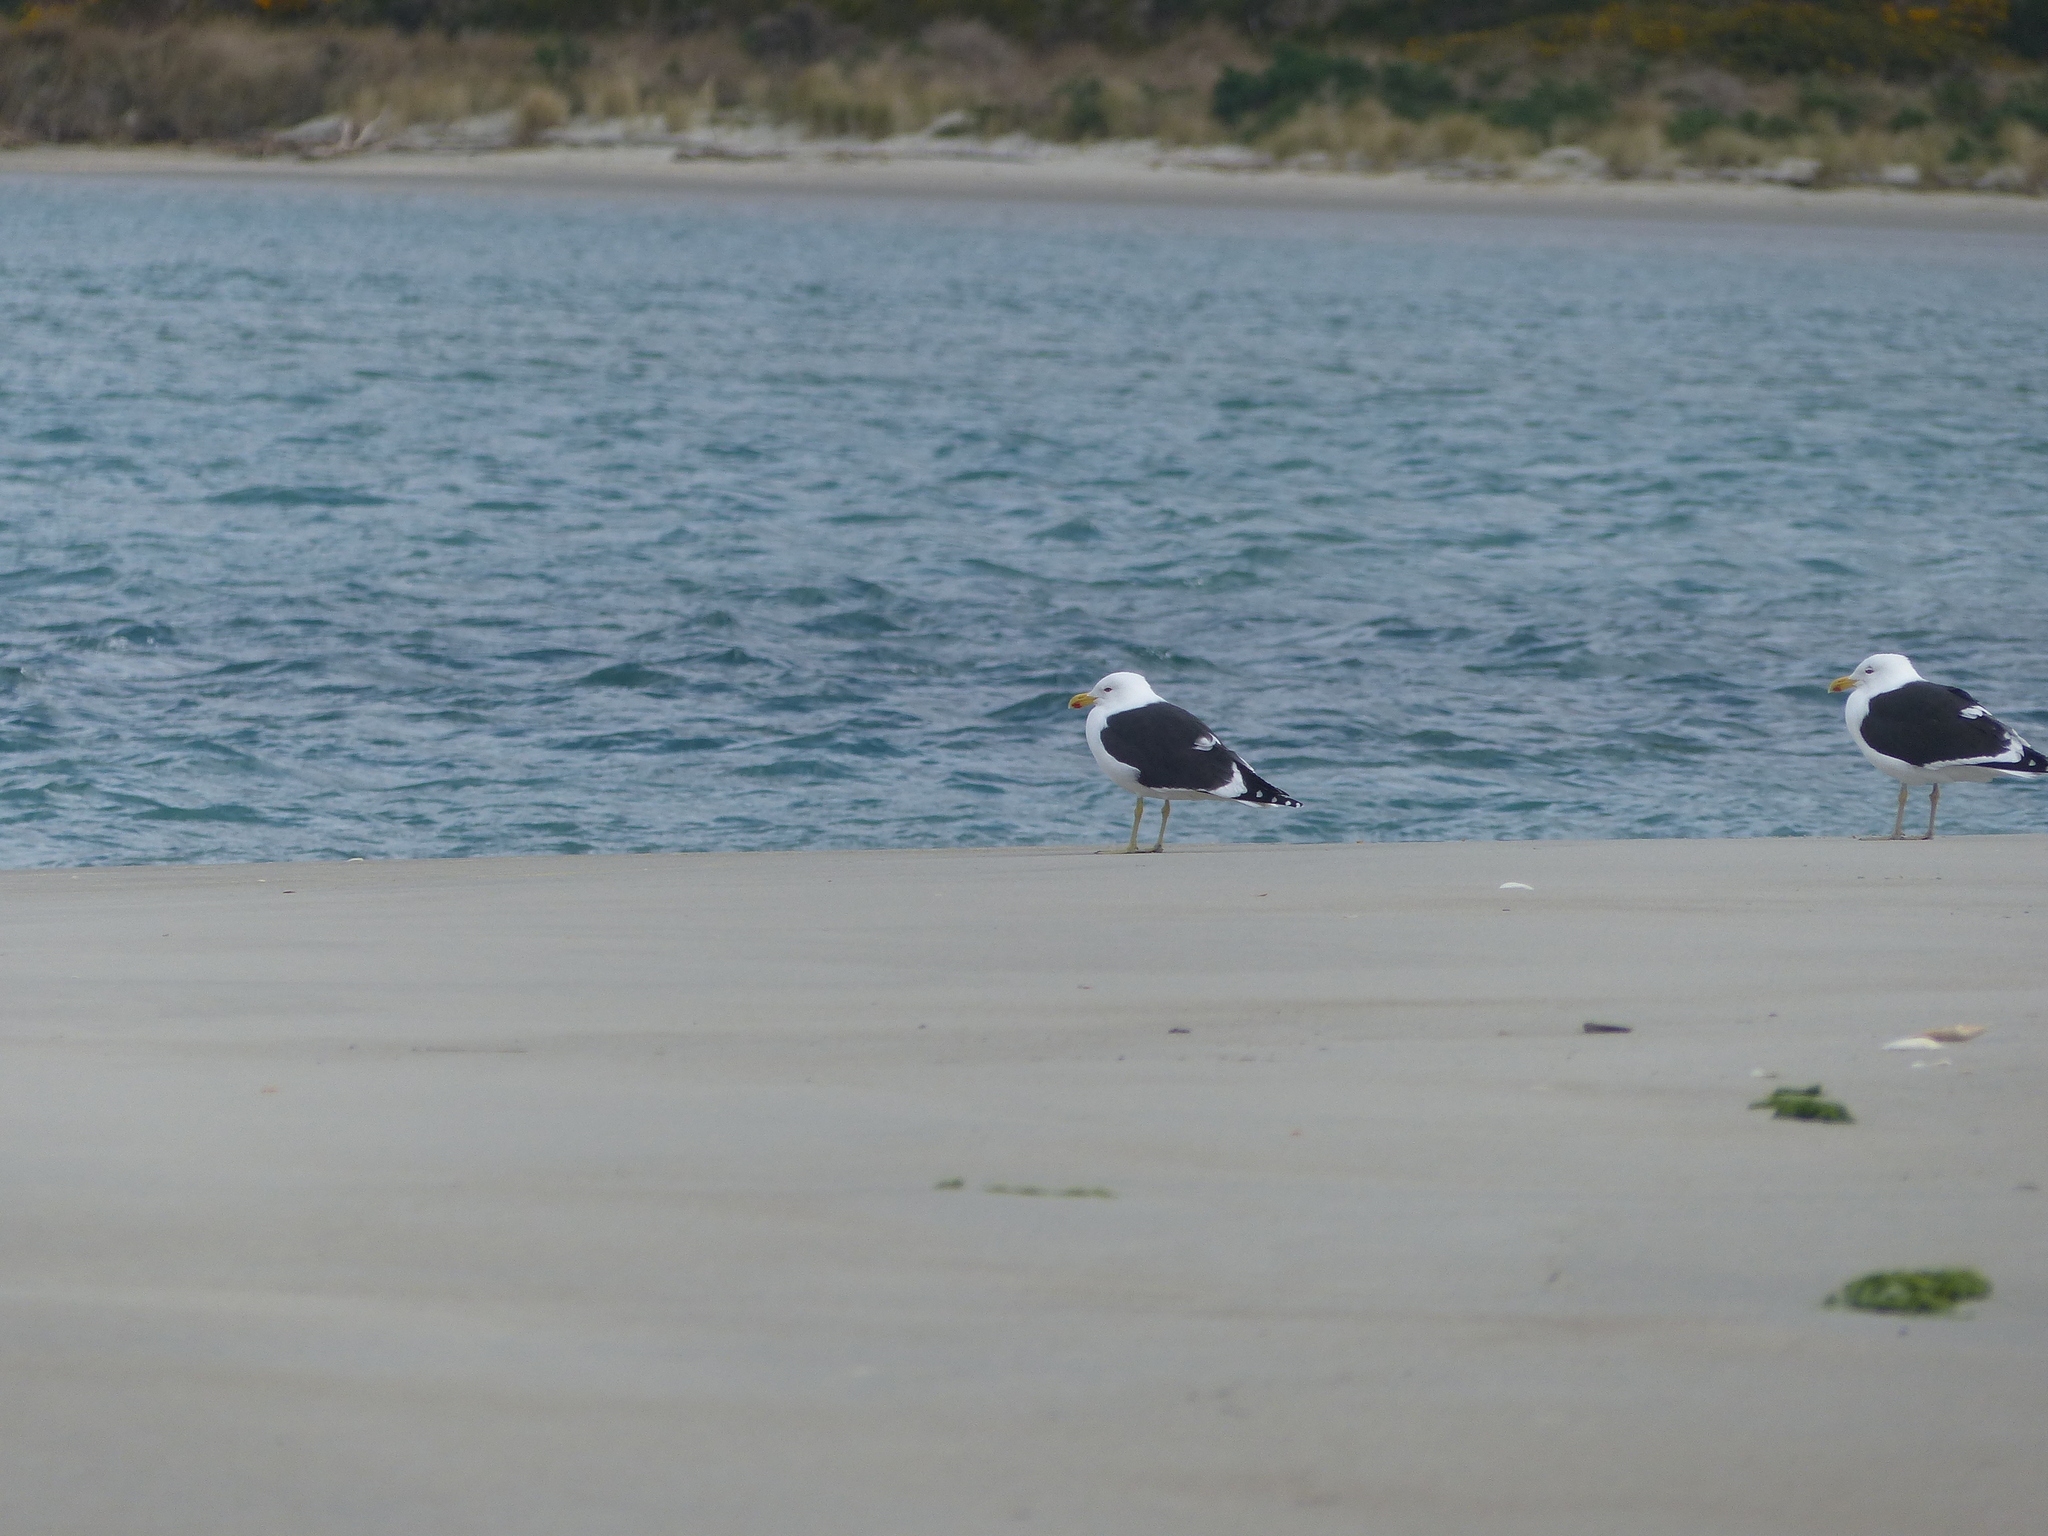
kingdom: Animalia
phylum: Chordata
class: Aves
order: Charadriiformes
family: Laridae
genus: Larus
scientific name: Larus dominicanus
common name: Kelp gull
